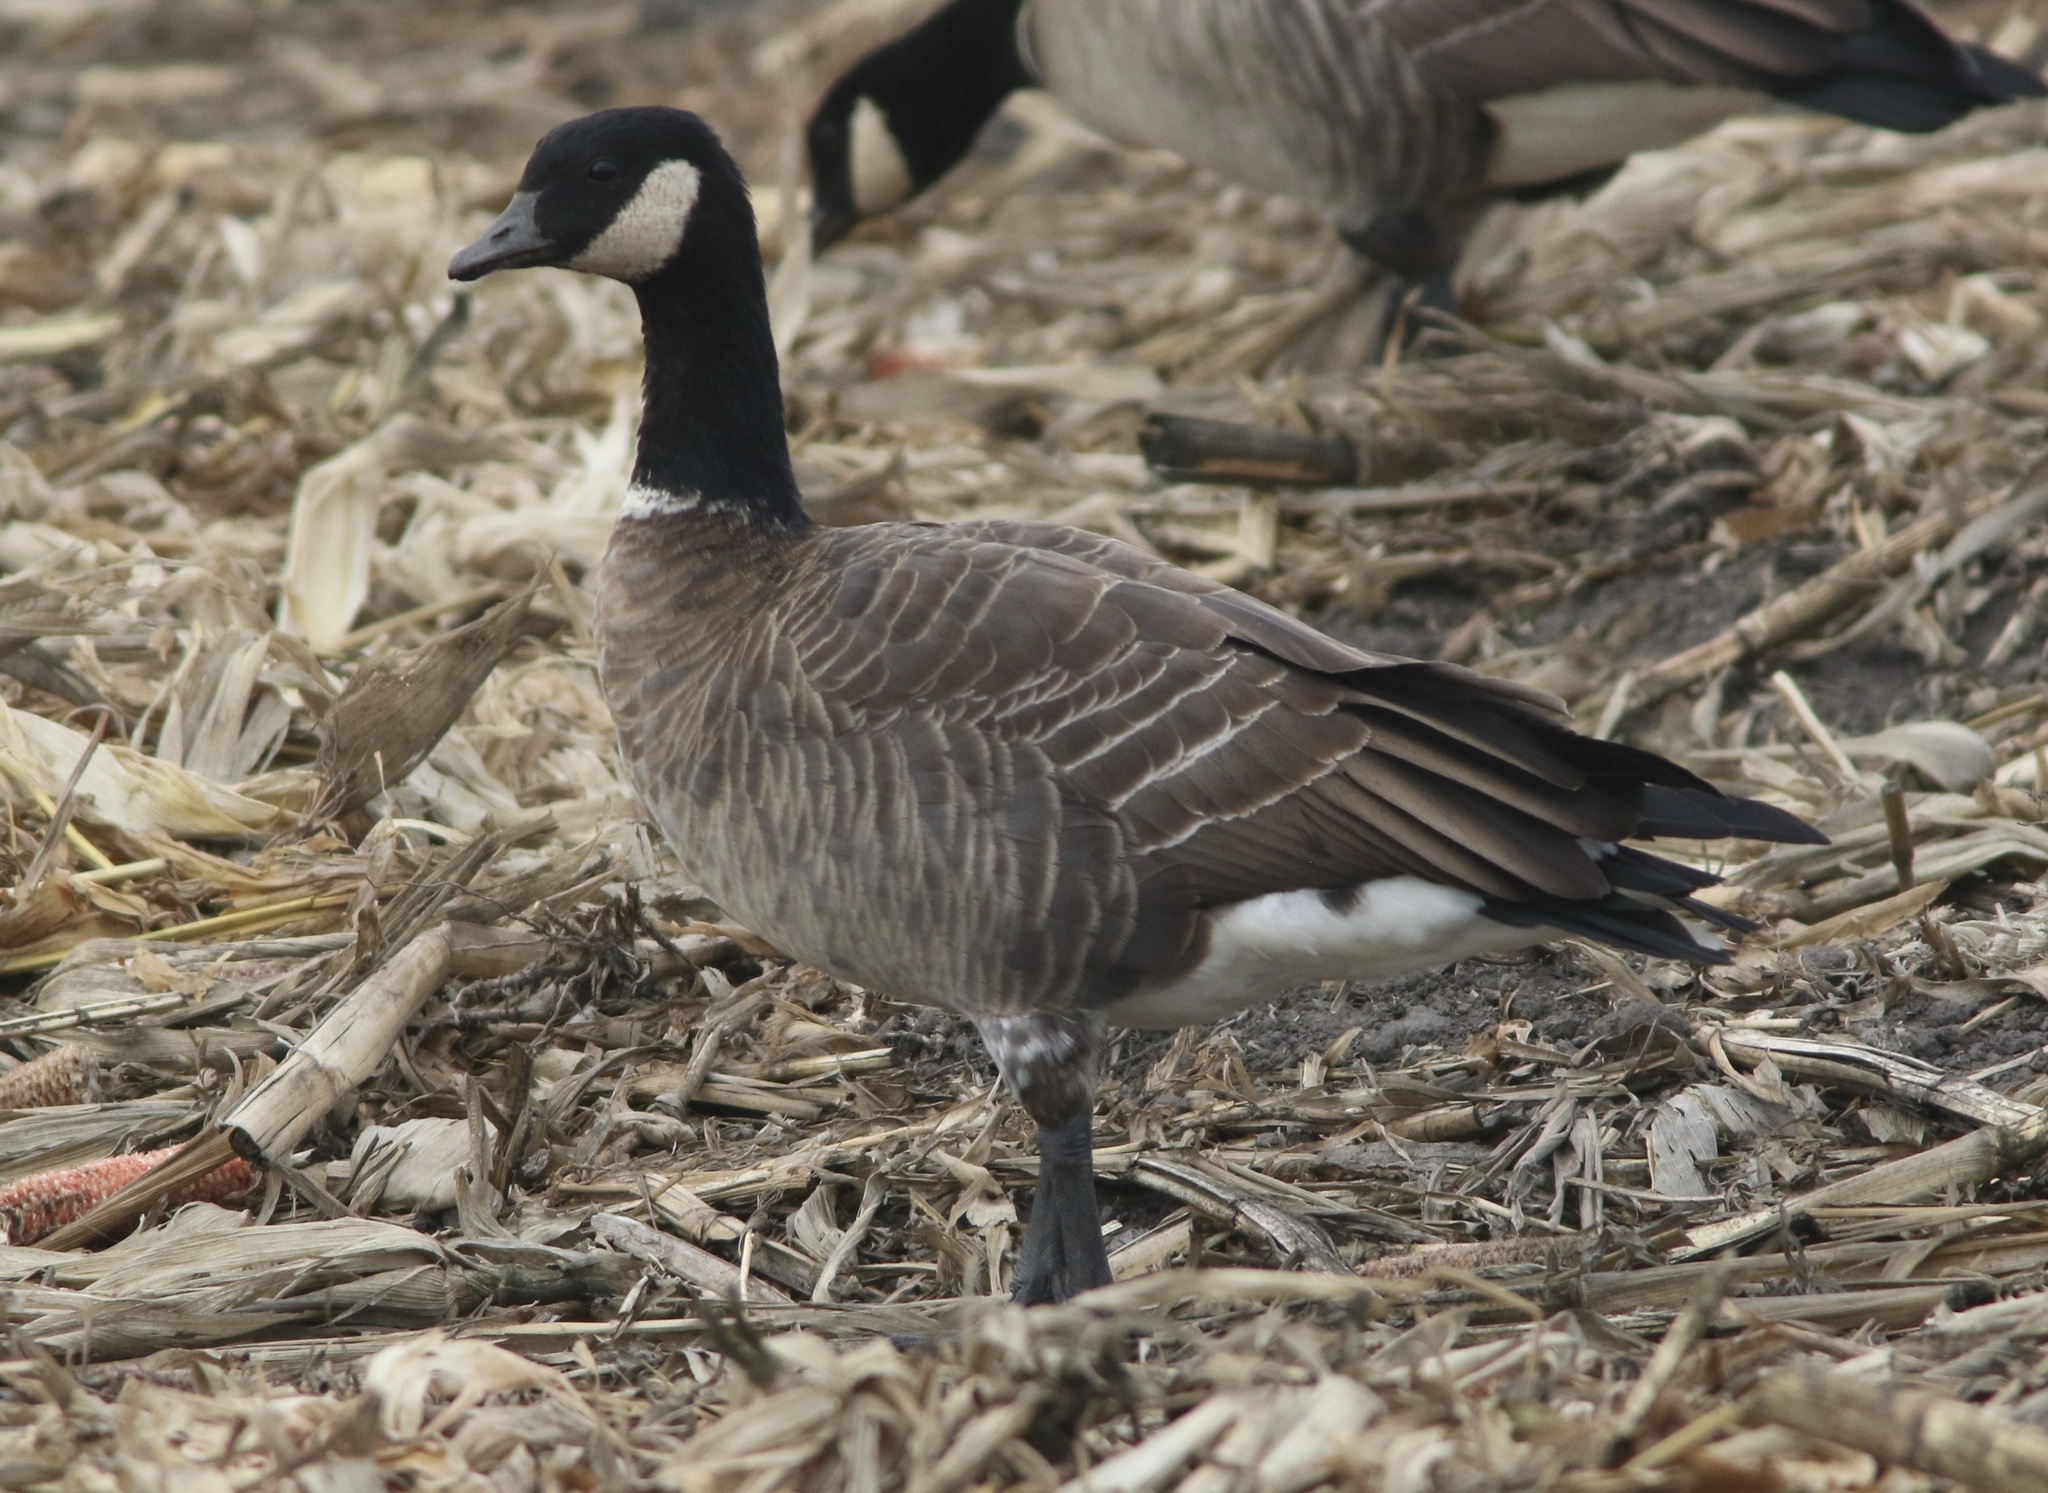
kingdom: Animalia
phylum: Chordata
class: Aves
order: Anseriformes
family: Anatidae
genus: Branta
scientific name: Branta hutchinsii
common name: Cackling goose
